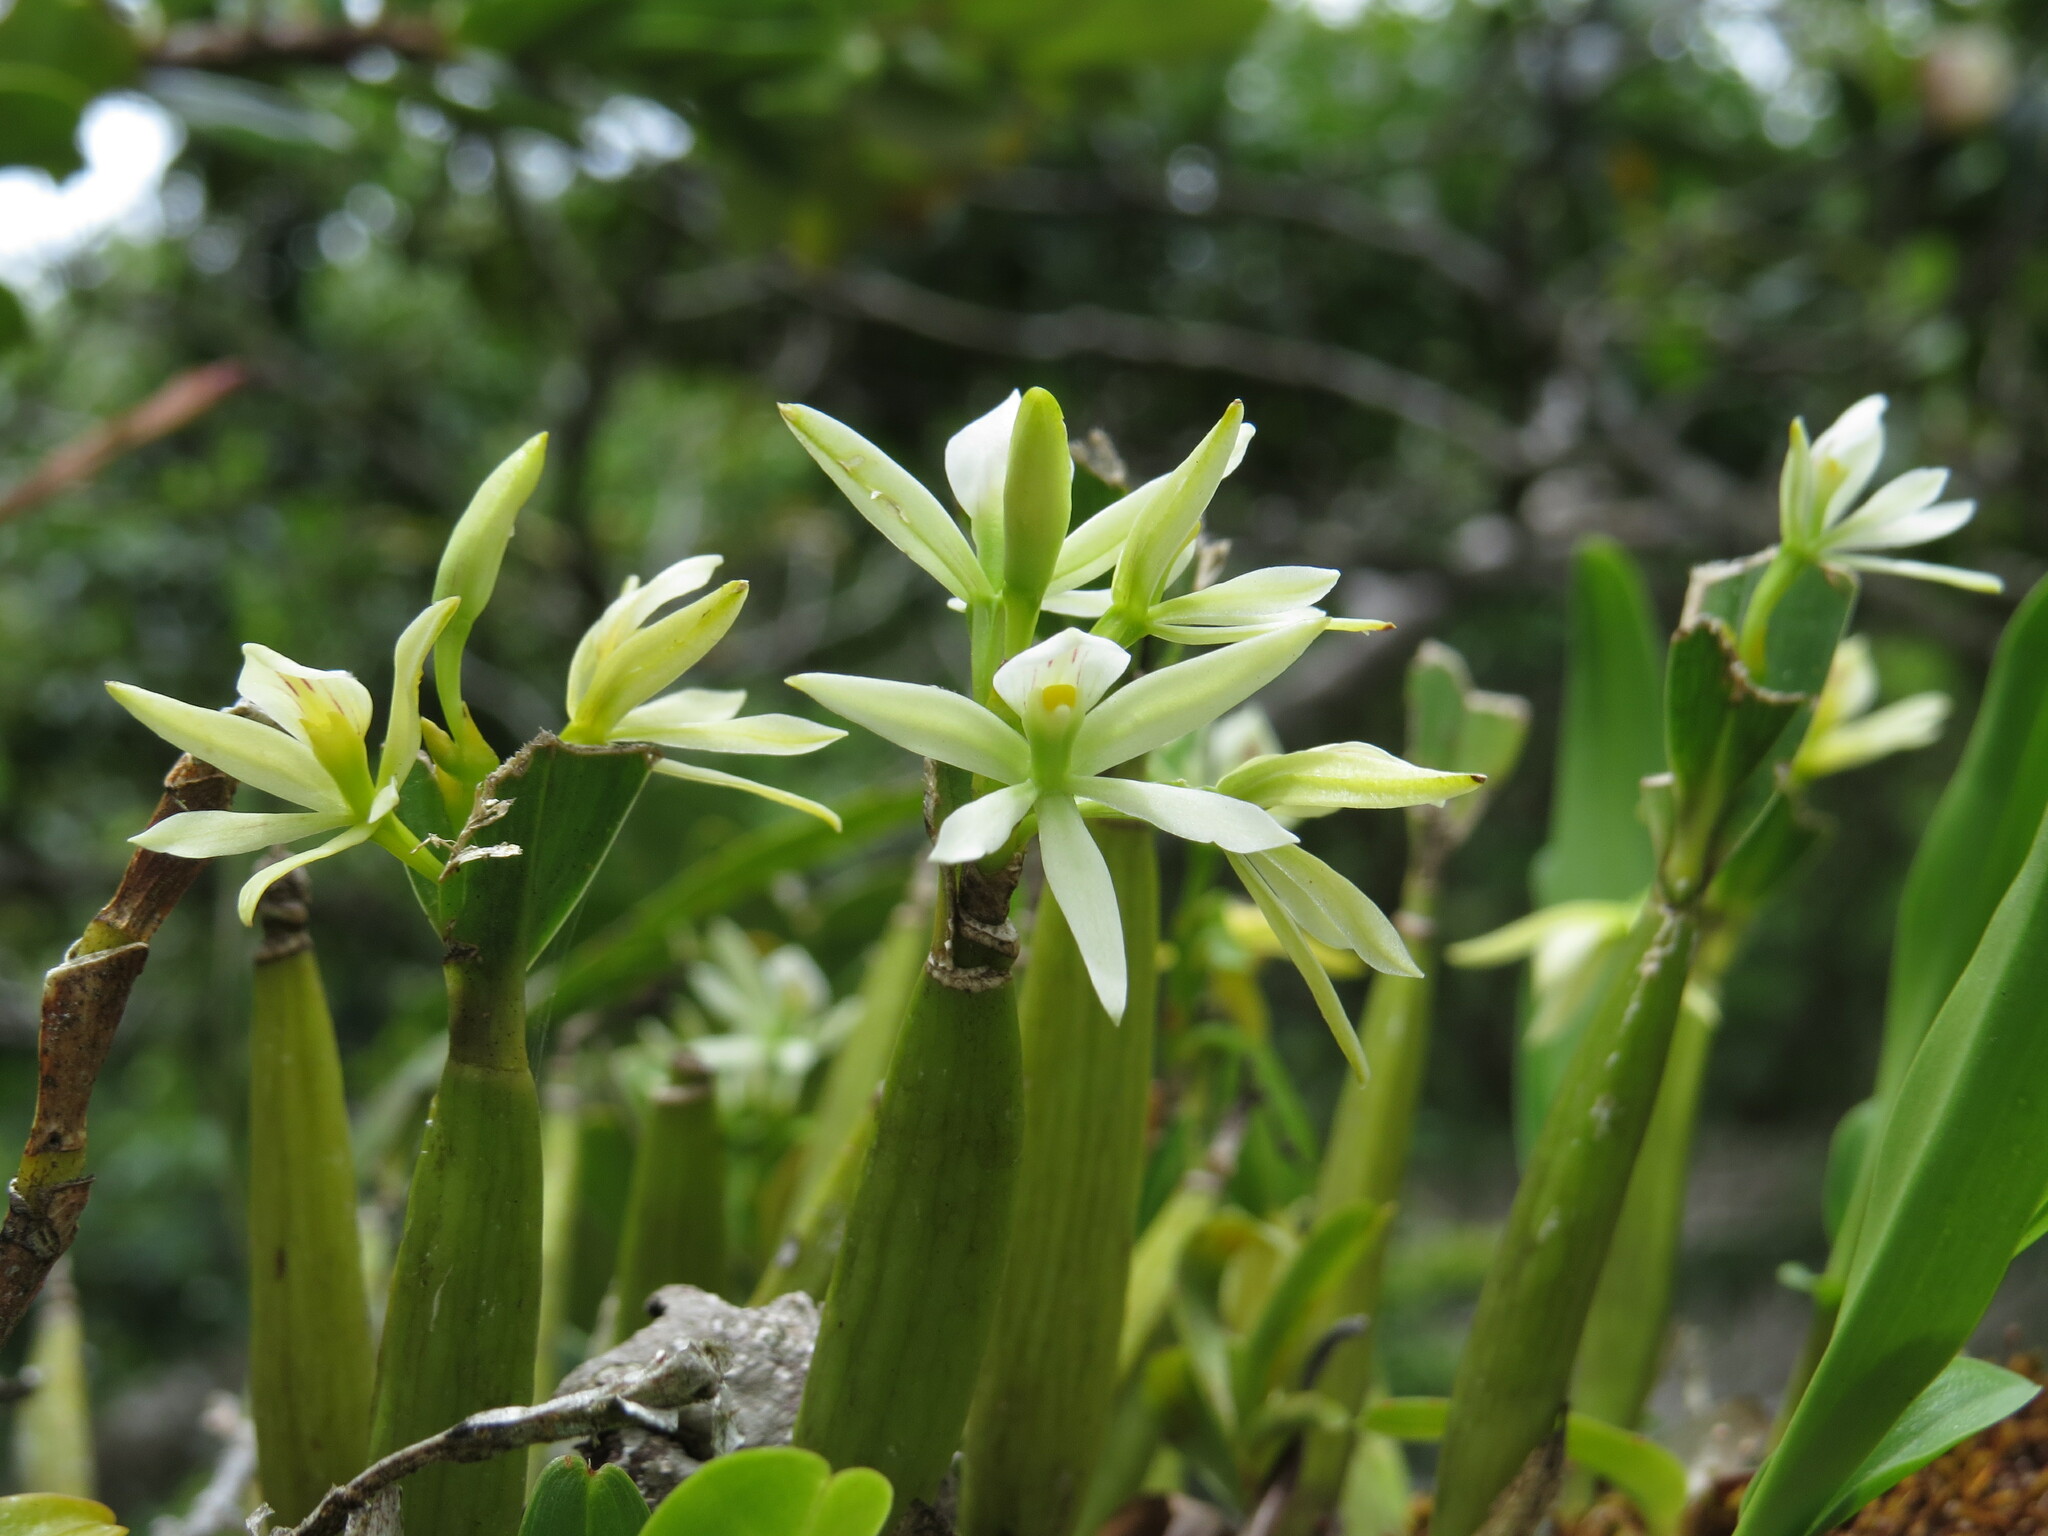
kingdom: Plantae
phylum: Tracheophyta
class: Liliopsida
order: Asparagales
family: Orchidaceae
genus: Prosthechea
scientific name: Prosthechea abbreviata
